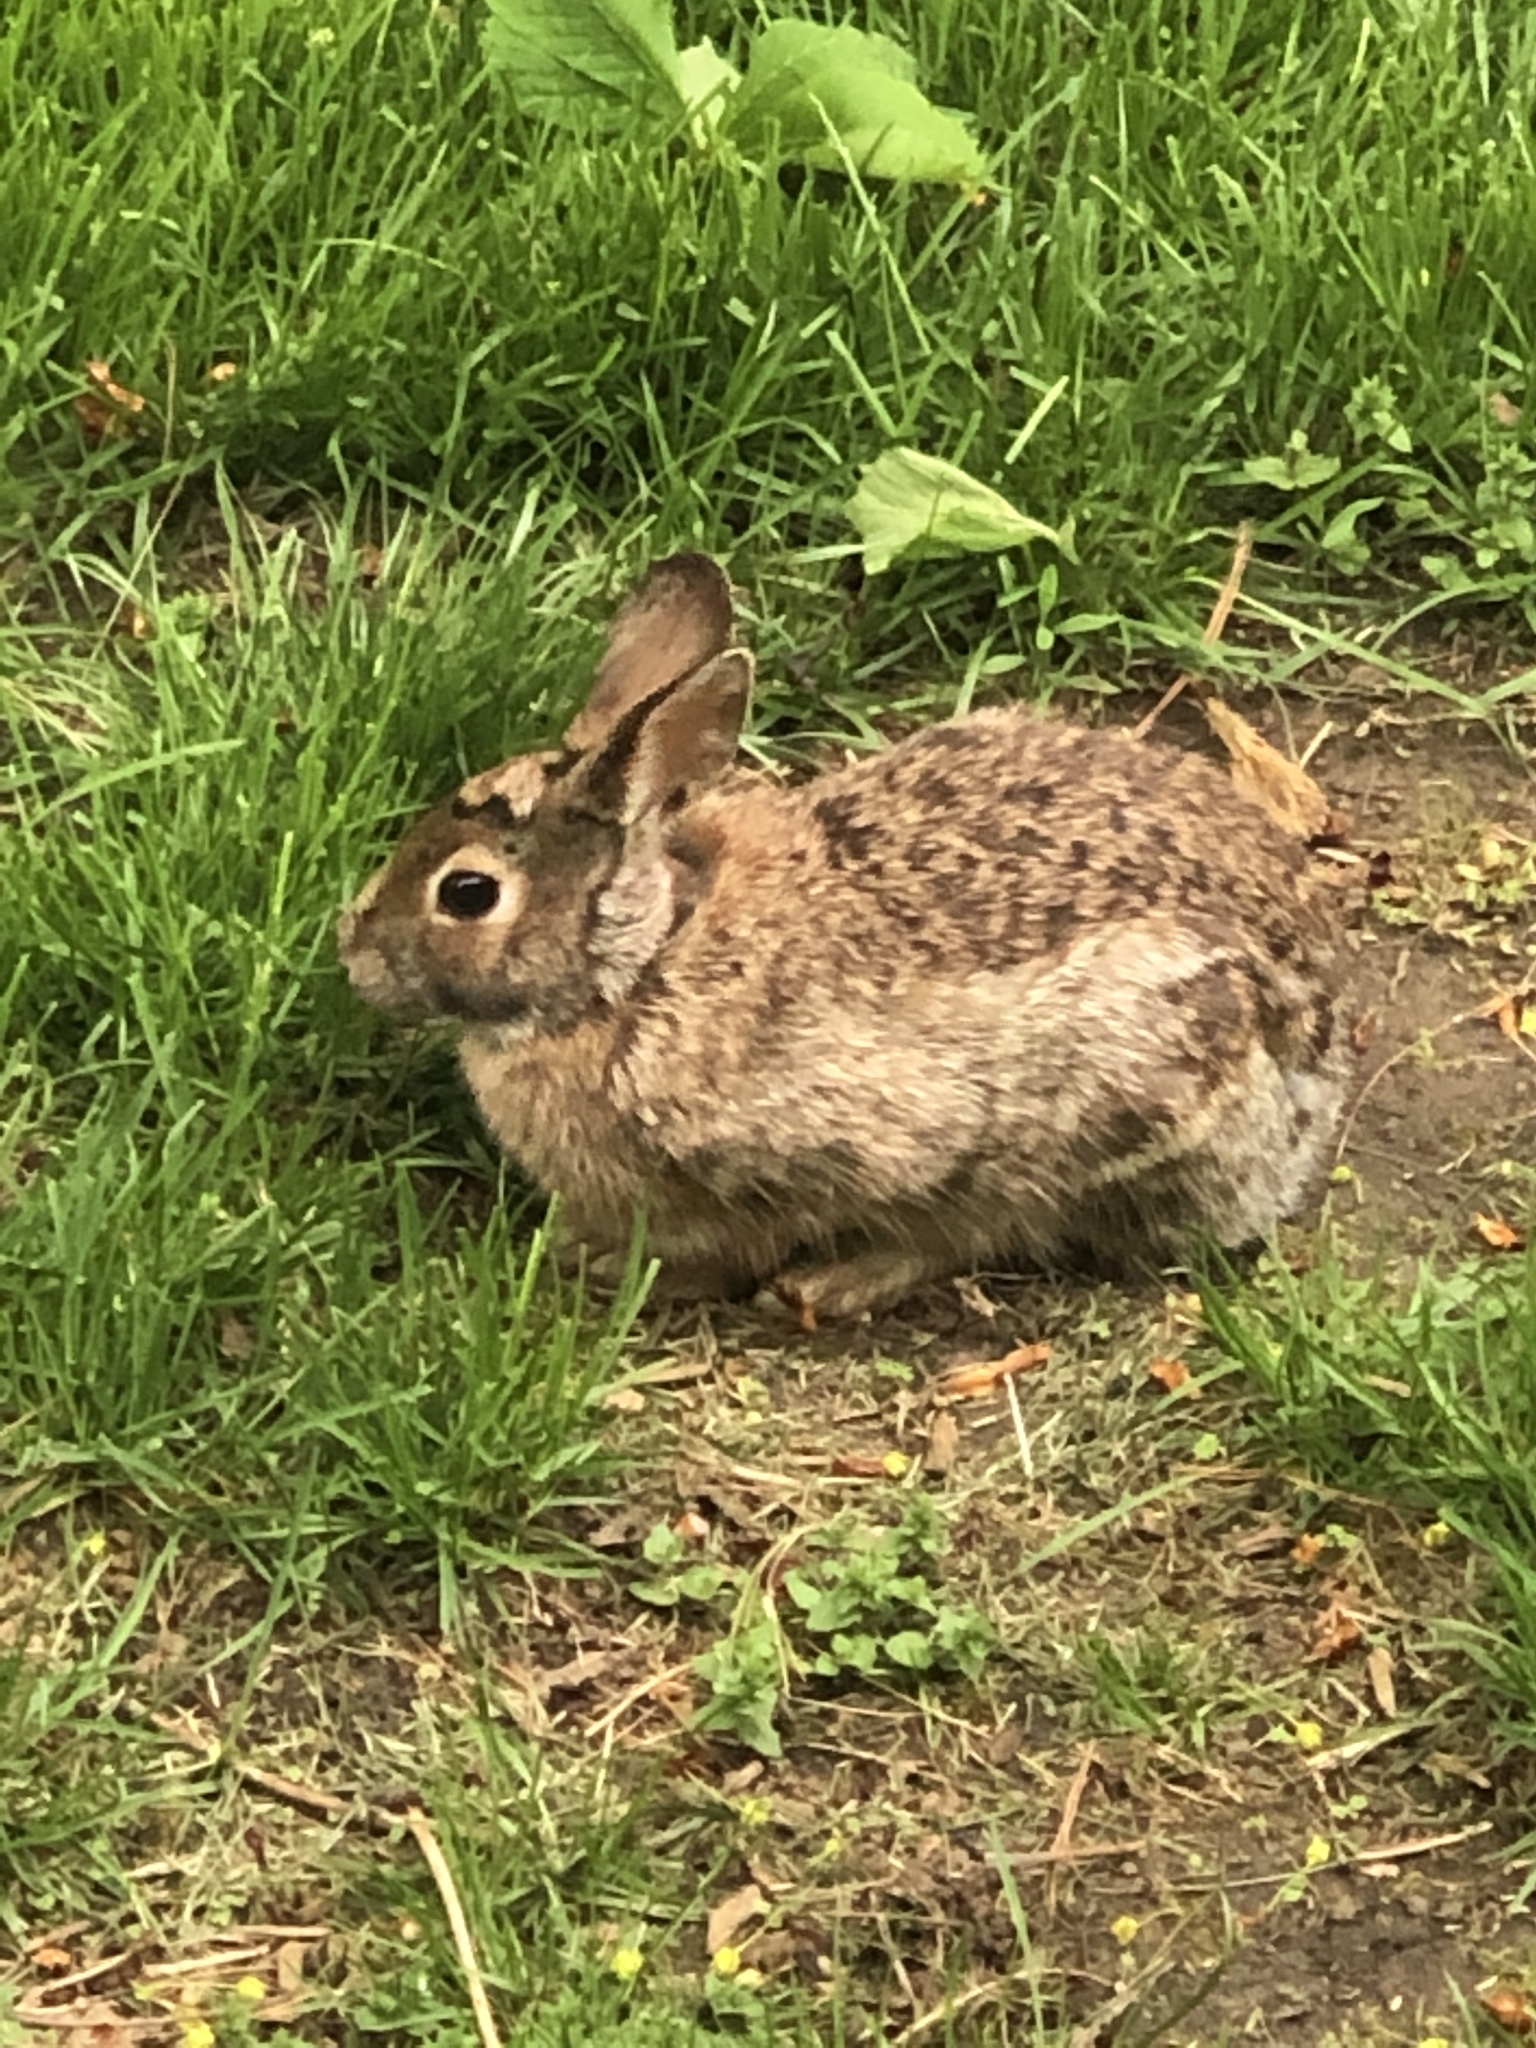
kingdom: Animalia
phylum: Chordata
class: Mammalia
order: Lagomorpha
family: Leporidae
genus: Sylvilagus
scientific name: Sylvilagus floridanus
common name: Eastern cottontail
